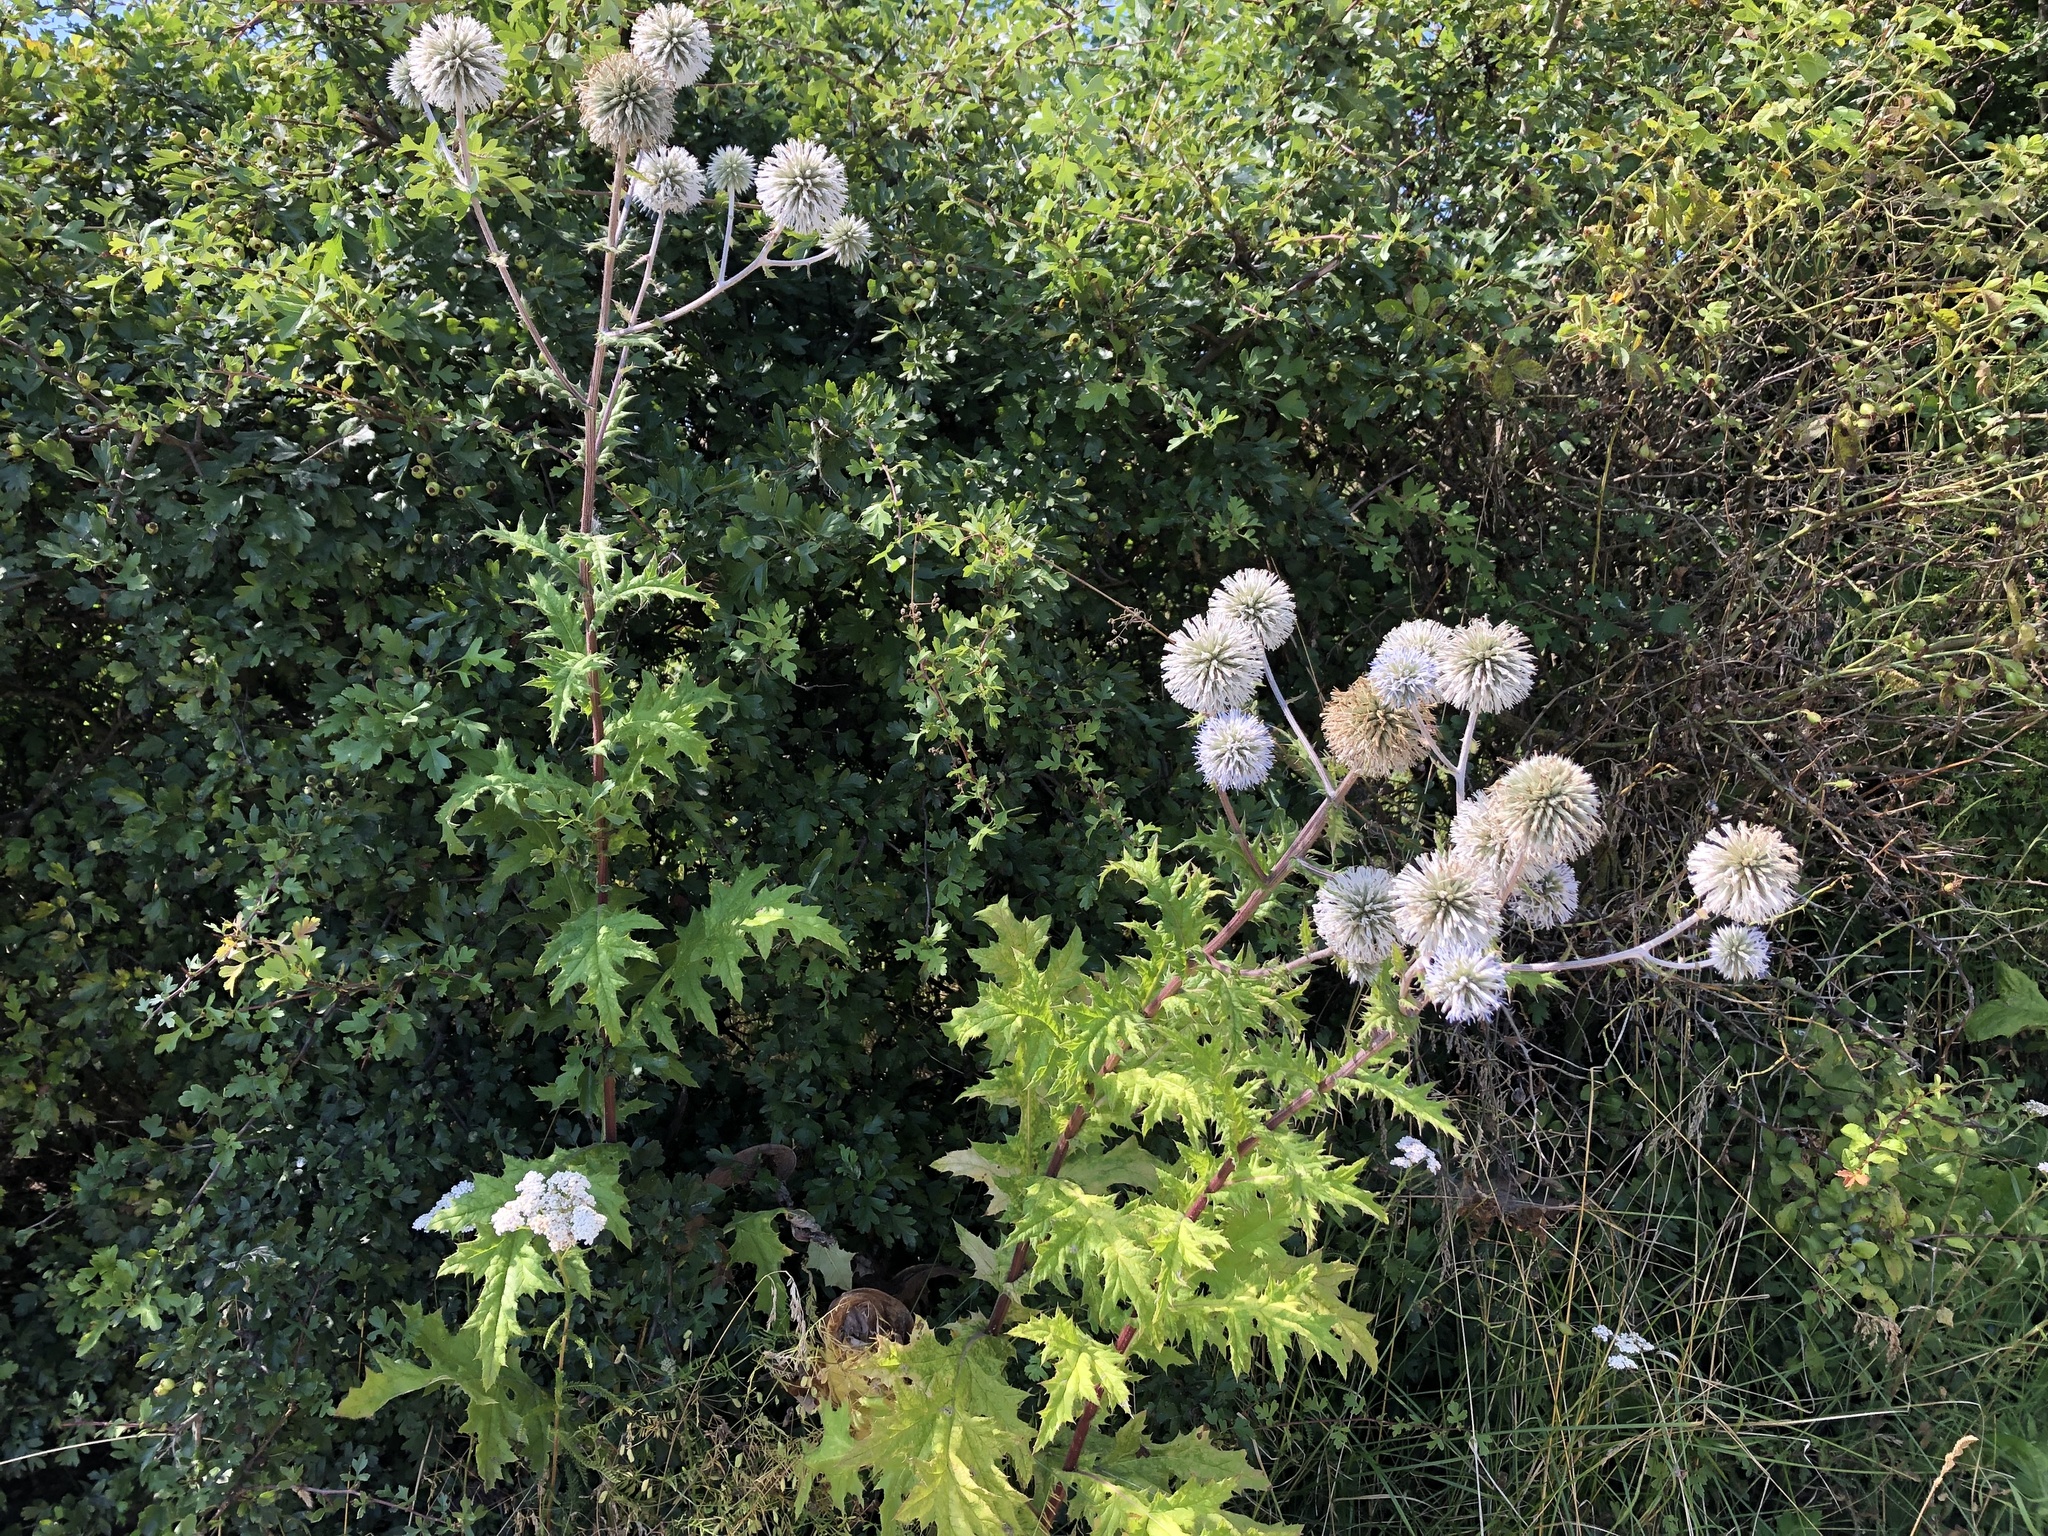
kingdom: Plantae
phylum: Tracheophyta
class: Magnoliopsida
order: Asterales
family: Asteraceae
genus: Echinops
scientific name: Echinops sphaerocephalus
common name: Glandular globe-thistle
